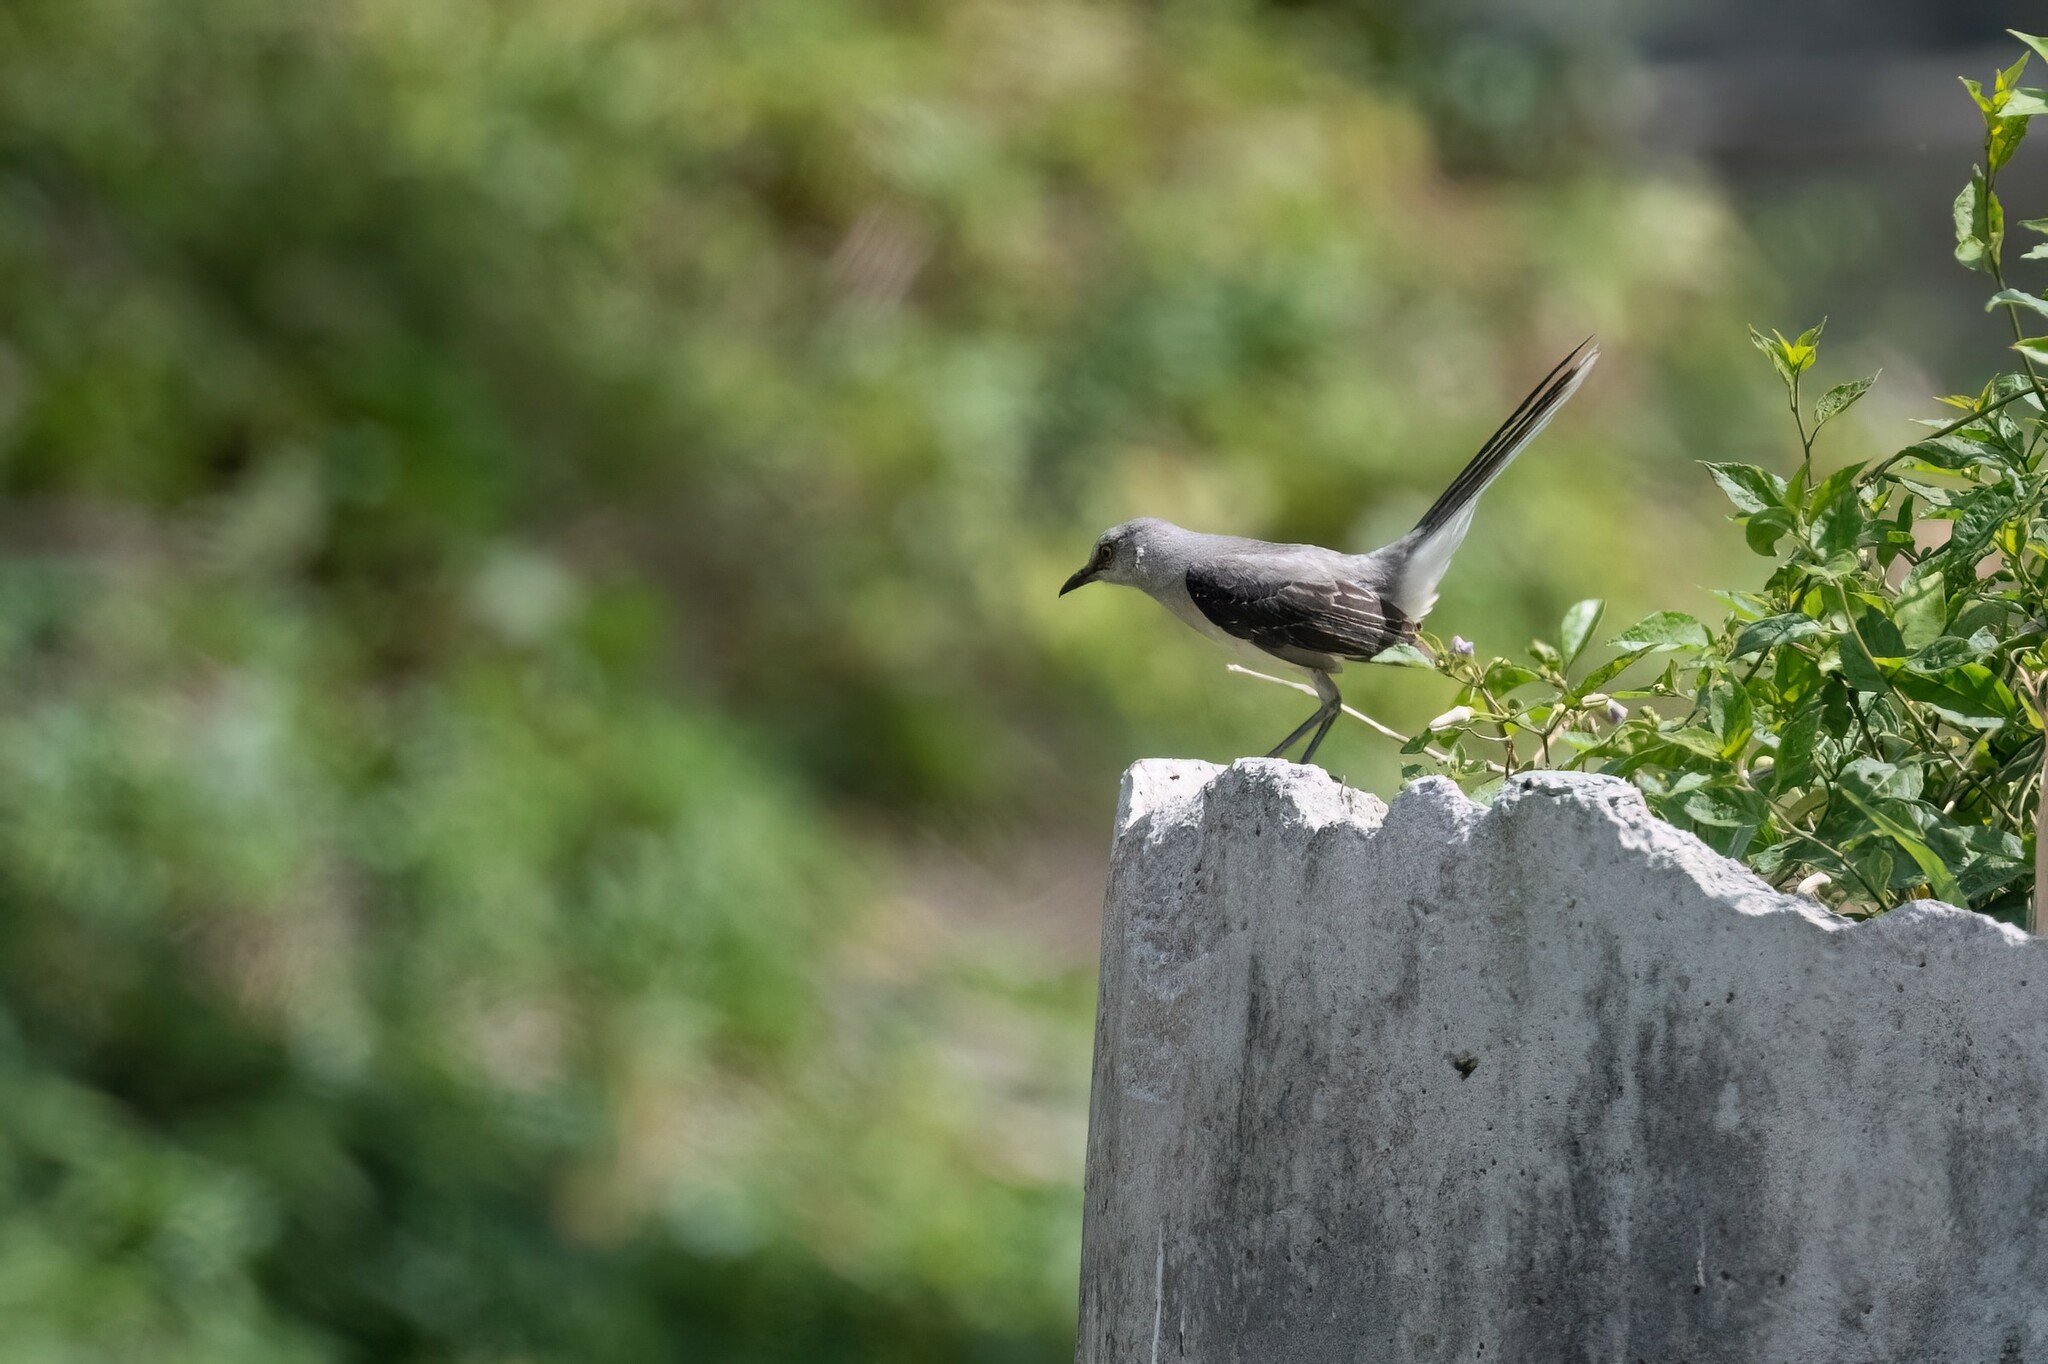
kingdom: Animalia
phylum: Chordata
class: Aves
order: Passeriformes
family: Mimidae
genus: Mimus
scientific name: Mimus gilvus
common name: Tropical mockingbird
